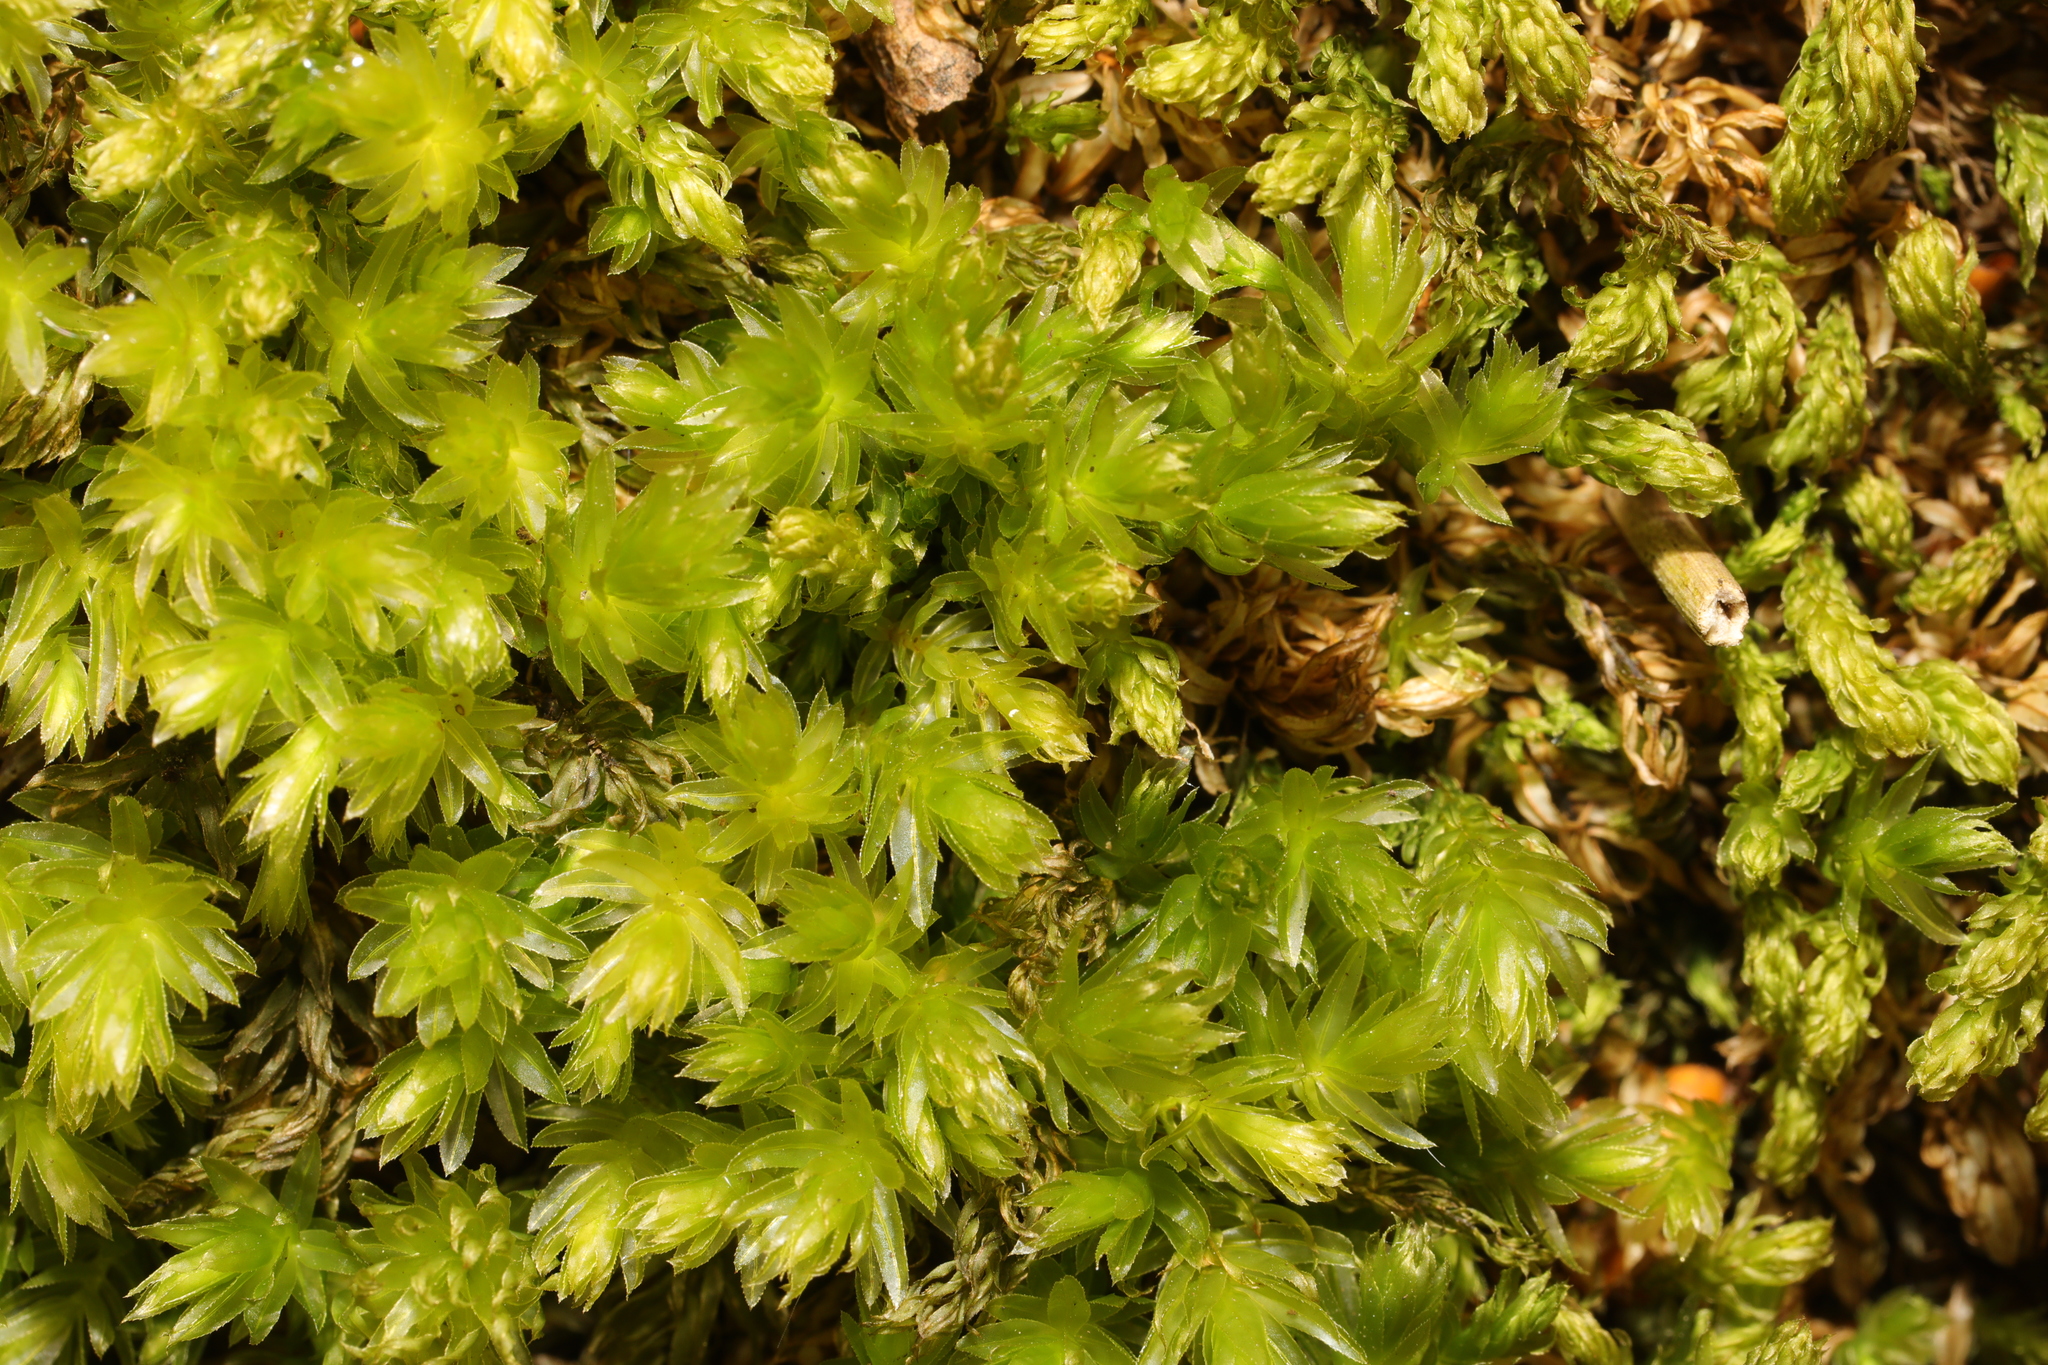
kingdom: Plantae
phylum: Bryophyta
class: Bryopsida
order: Bryales
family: Mniaceae
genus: Mnium
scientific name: Mnium hornum
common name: Swan's-neck leafy moss
